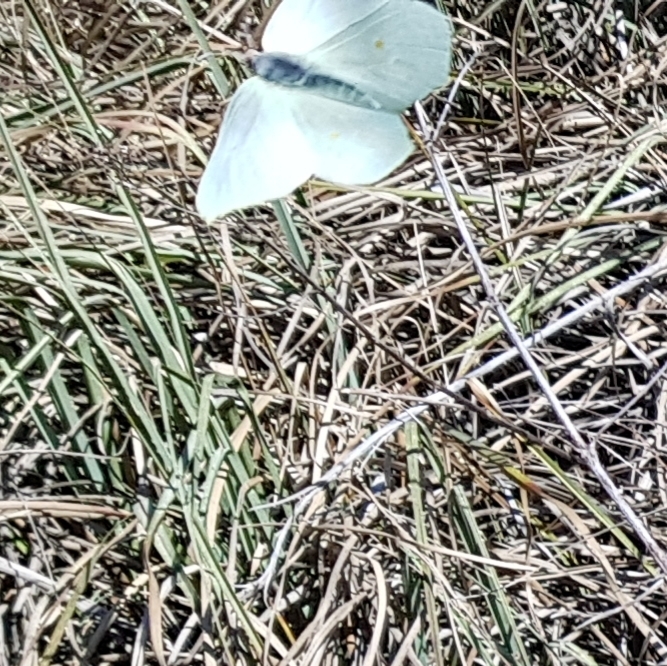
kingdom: Animalia
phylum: Arthropoda
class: Insecta
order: Lepidoptera
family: Pieridae
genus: Gonepteryx
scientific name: Gonepteryx rhamni
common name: Brimstone
